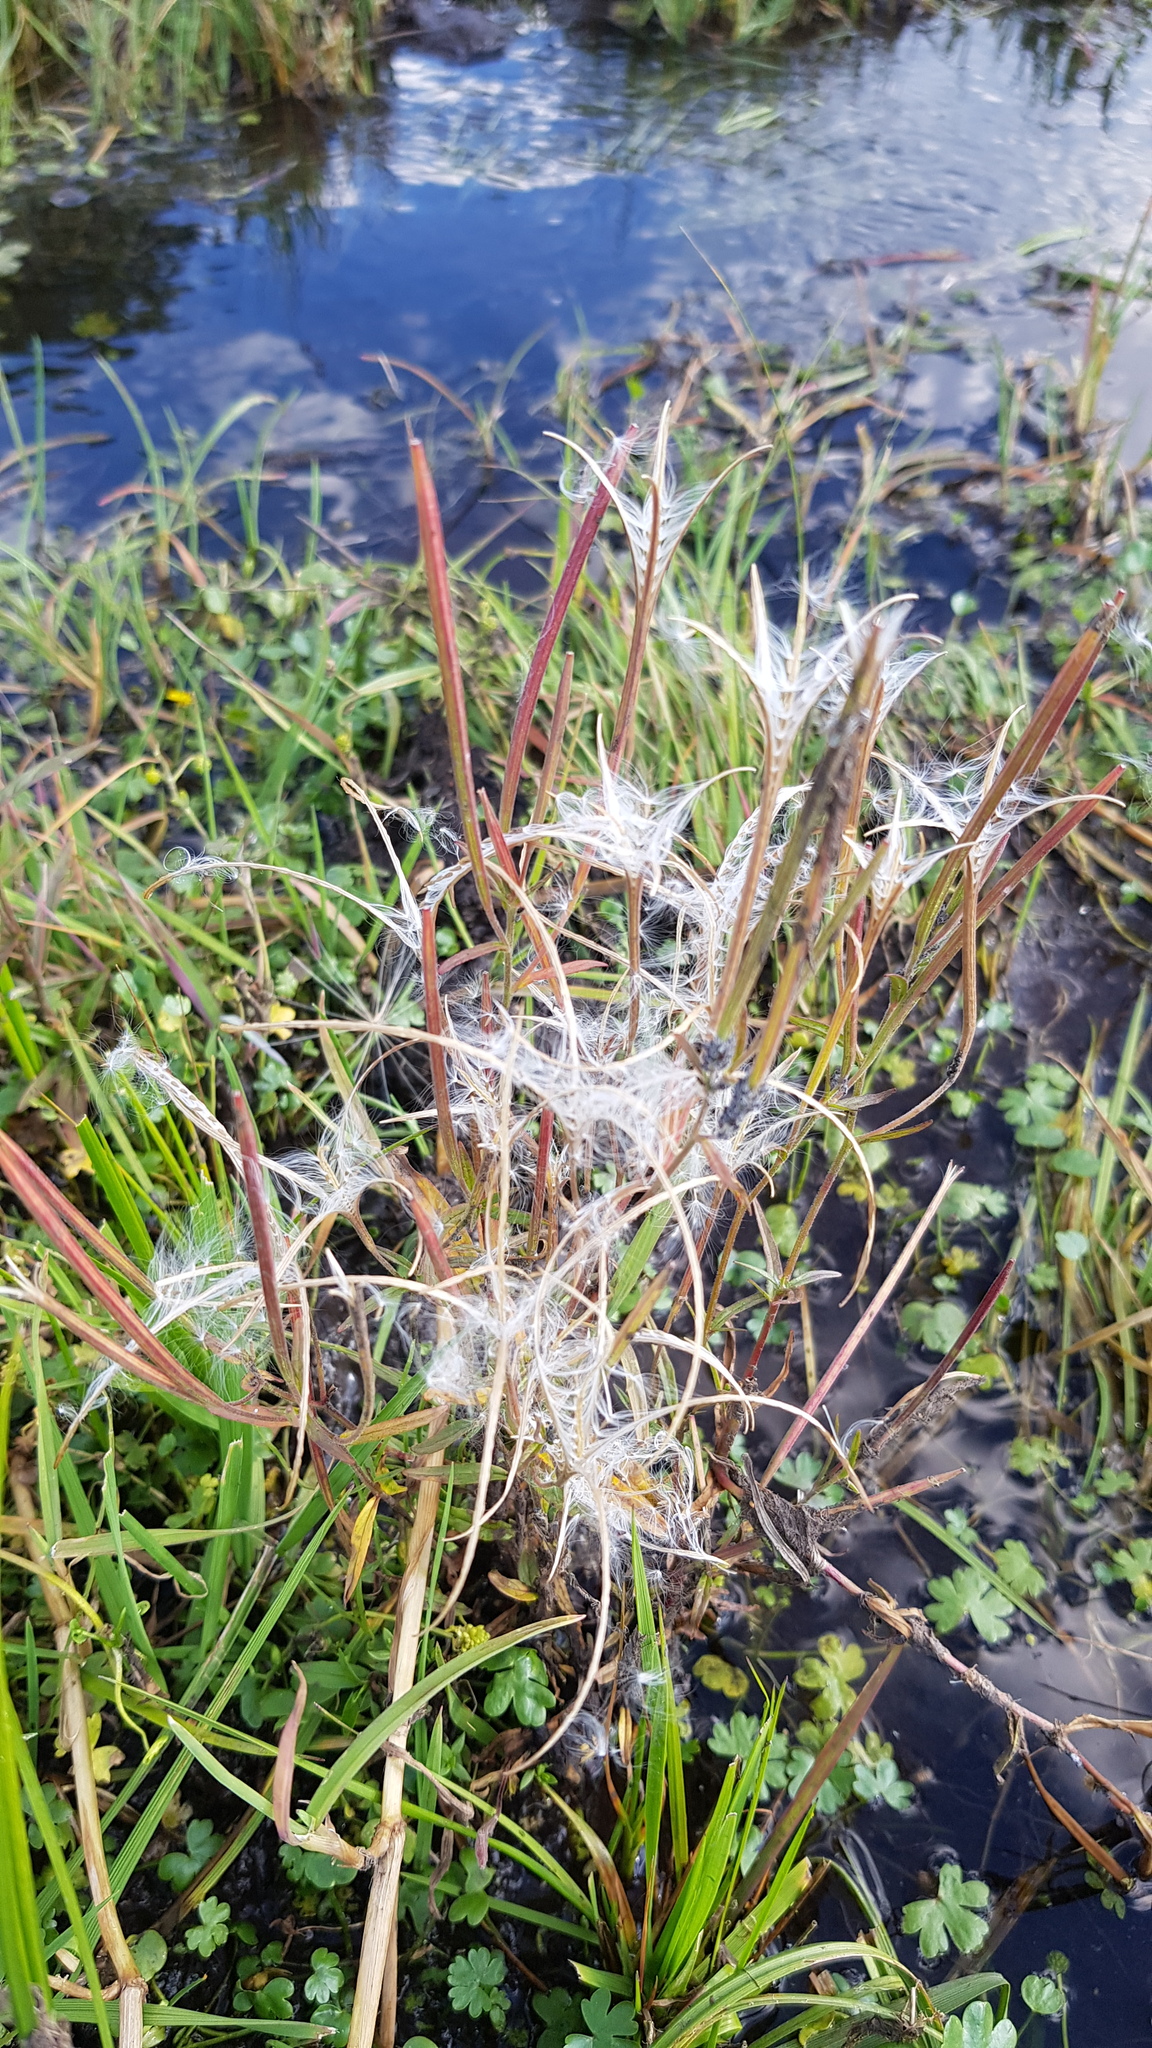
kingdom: Plantae
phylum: Tracheophyta
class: Magnoliopsida
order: Myrtales
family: Onagraceae
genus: Epilobium
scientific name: Epilobium palustre
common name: Marsh willowherb
